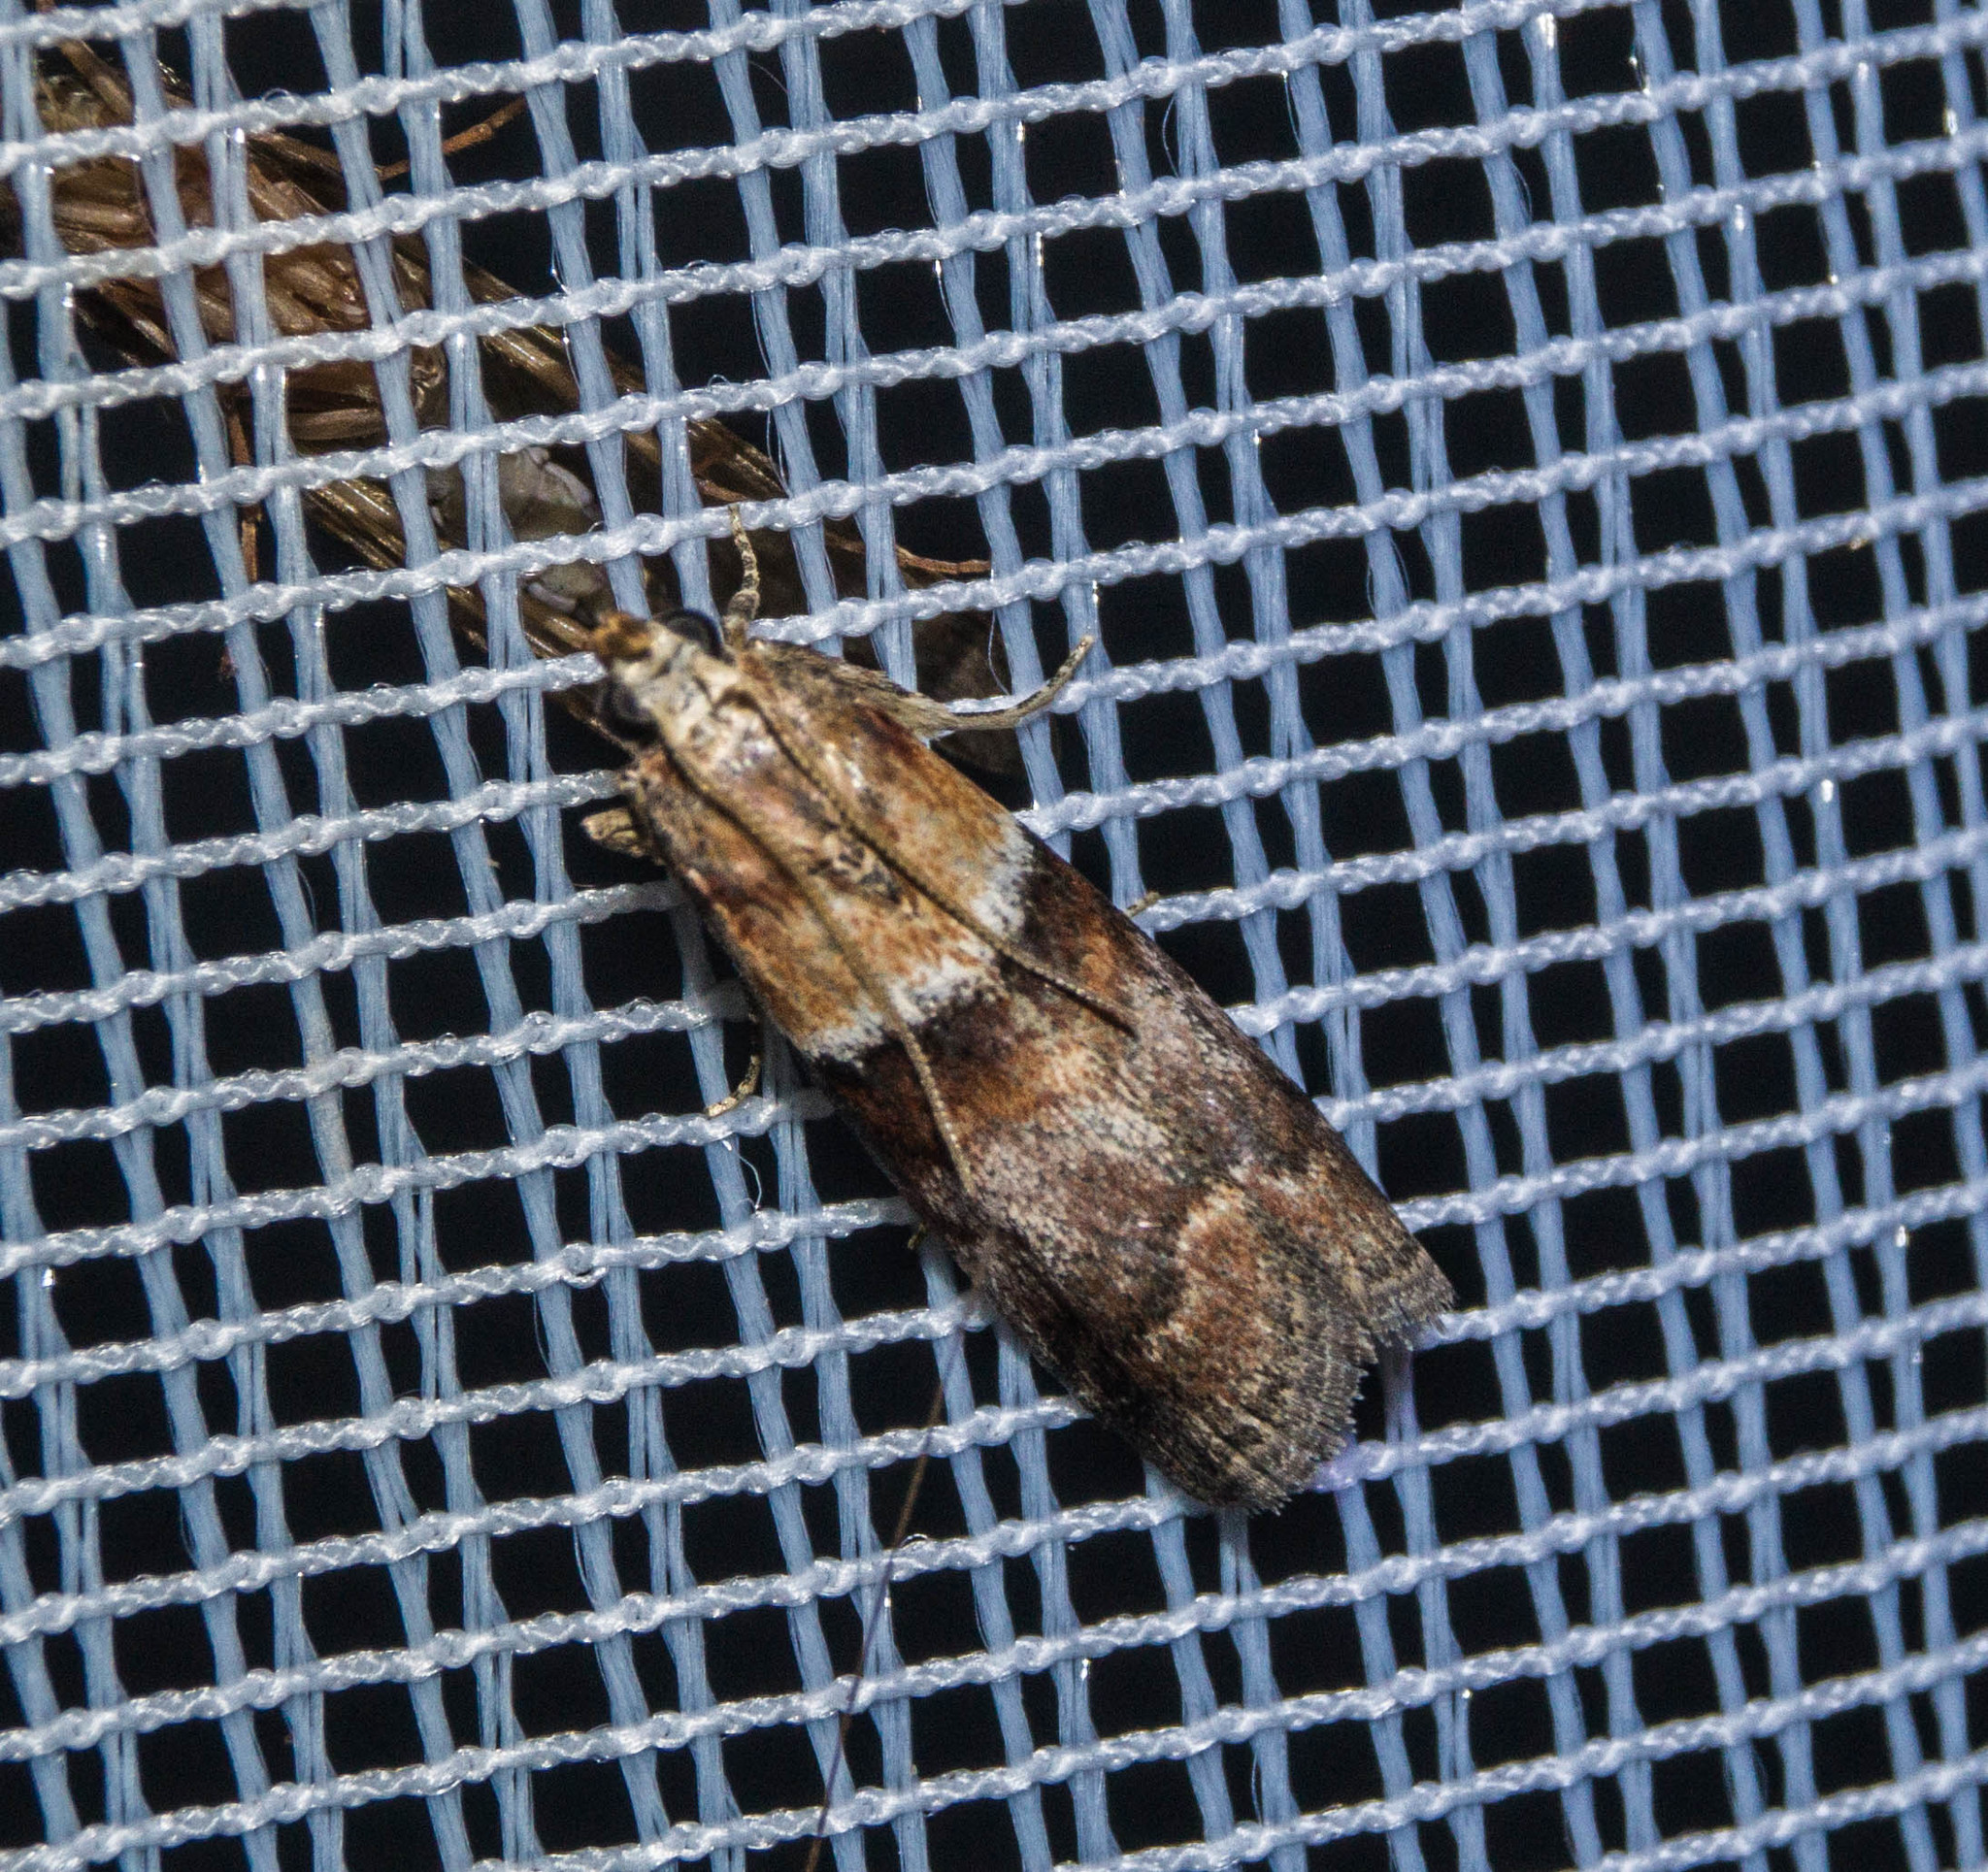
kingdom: Animalia
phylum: Arthropoda
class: Insecta
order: Lepidoptera
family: Pyralidae
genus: Acrobasis
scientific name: Acrobasis repandana
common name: Warted knot-horn
